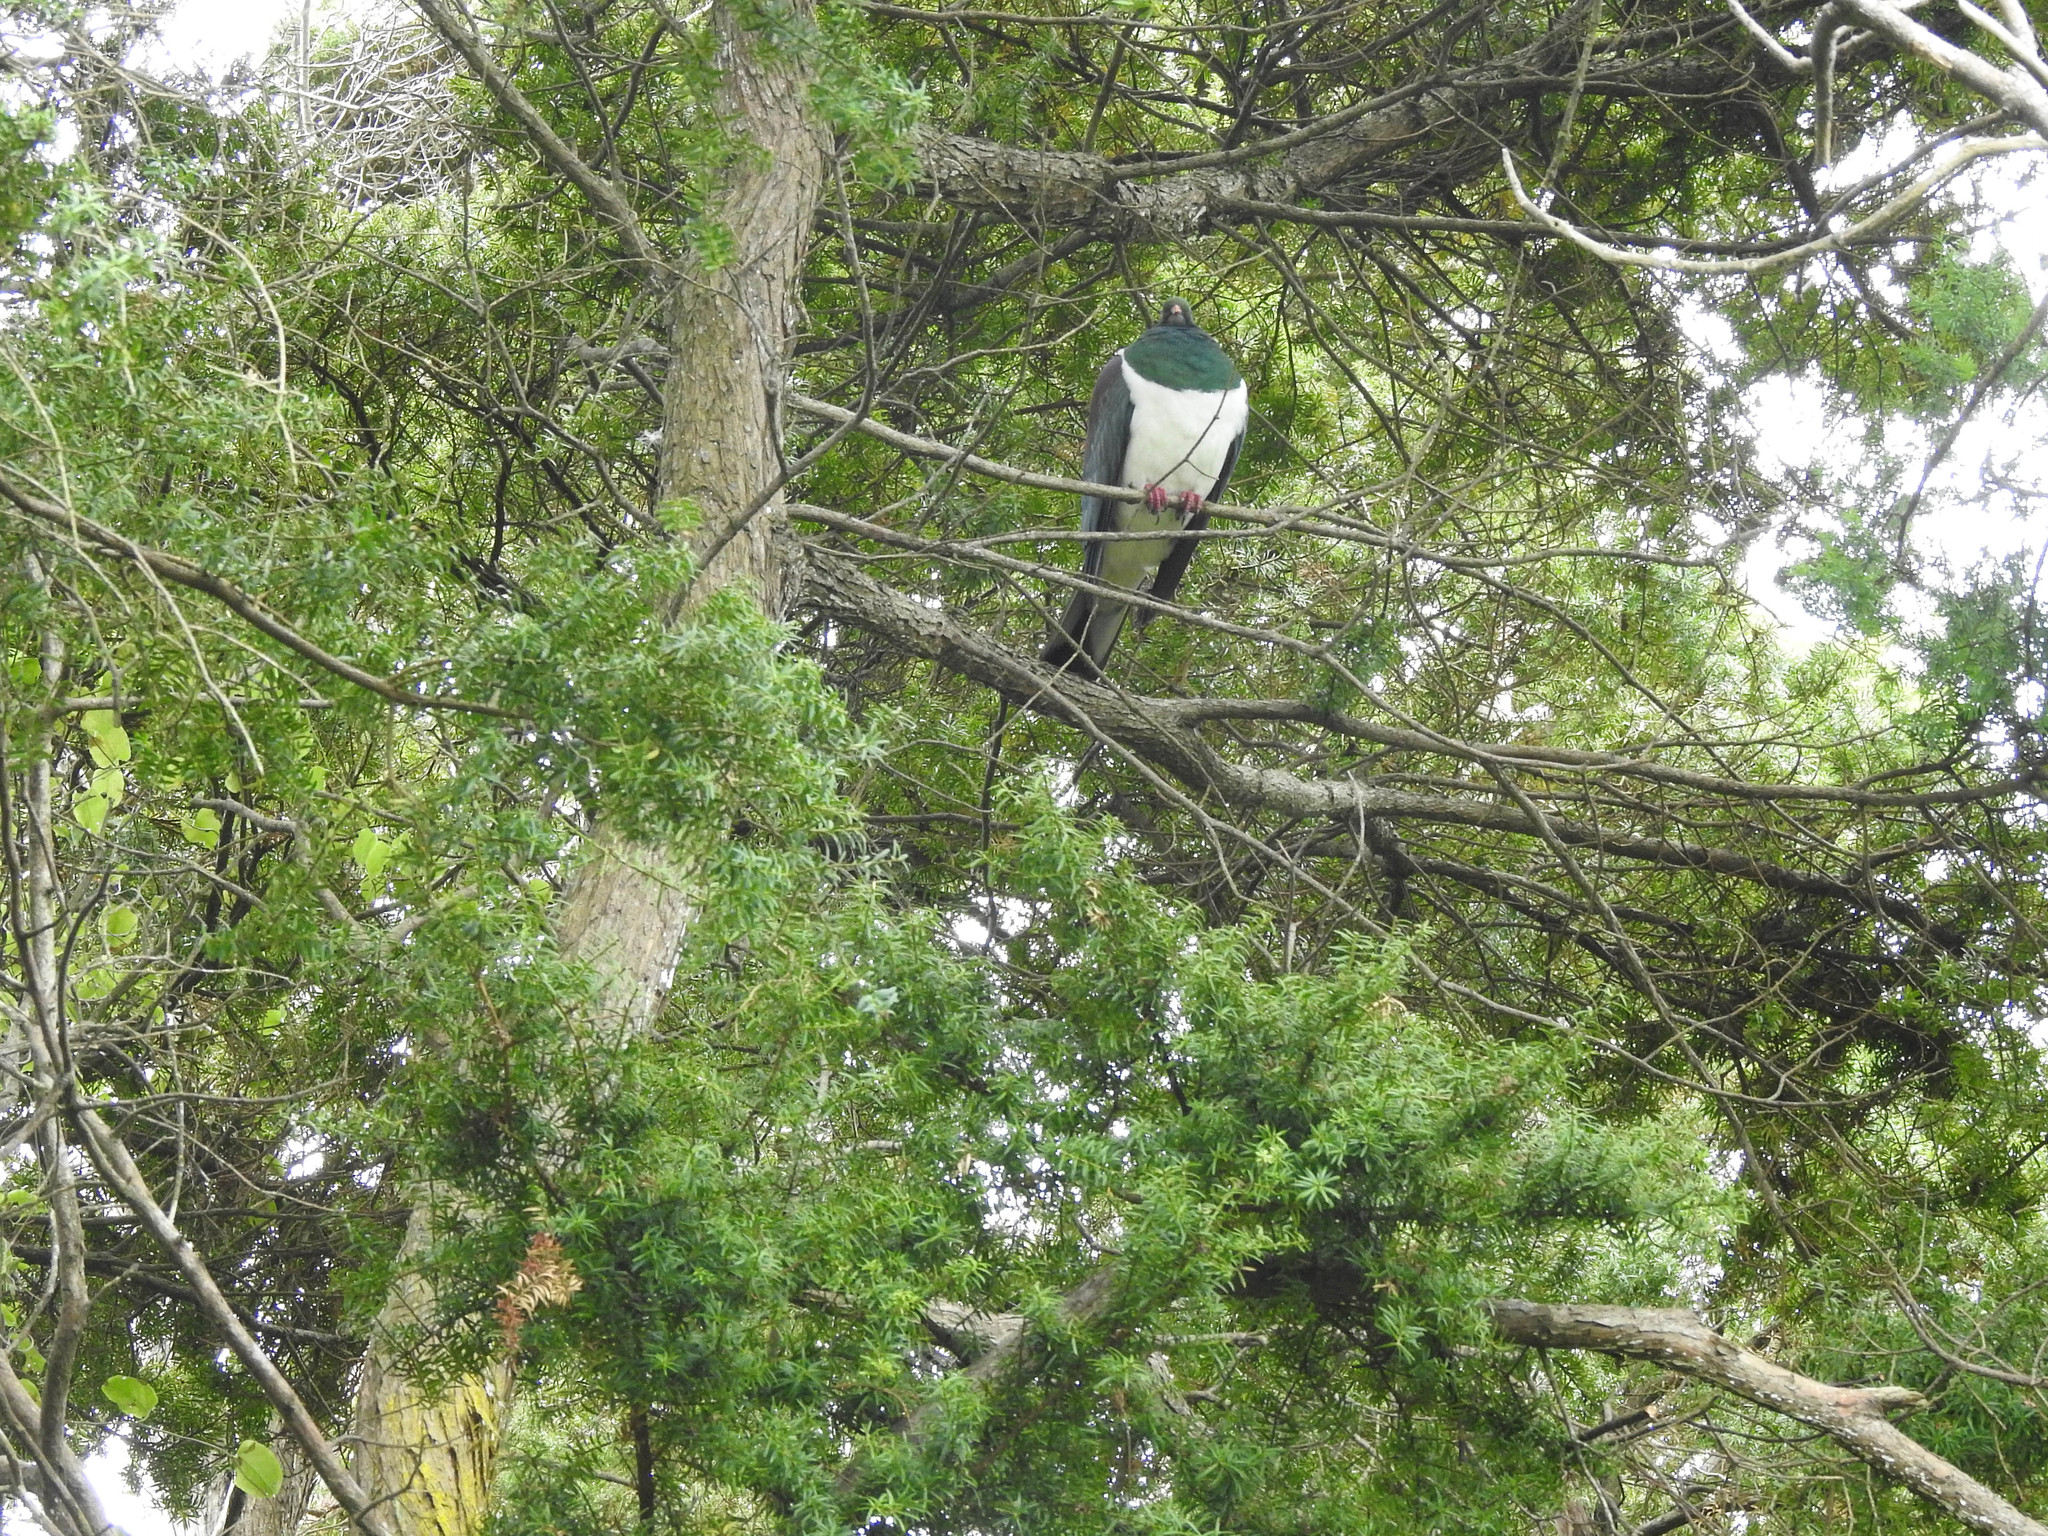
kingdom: Animalia
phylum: Chordata
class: Aves
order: Columbiformes
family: Columbidae
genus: Hemiphaga
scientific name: Hemiphaga novaeseelandiae
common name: New zealand pigeon
